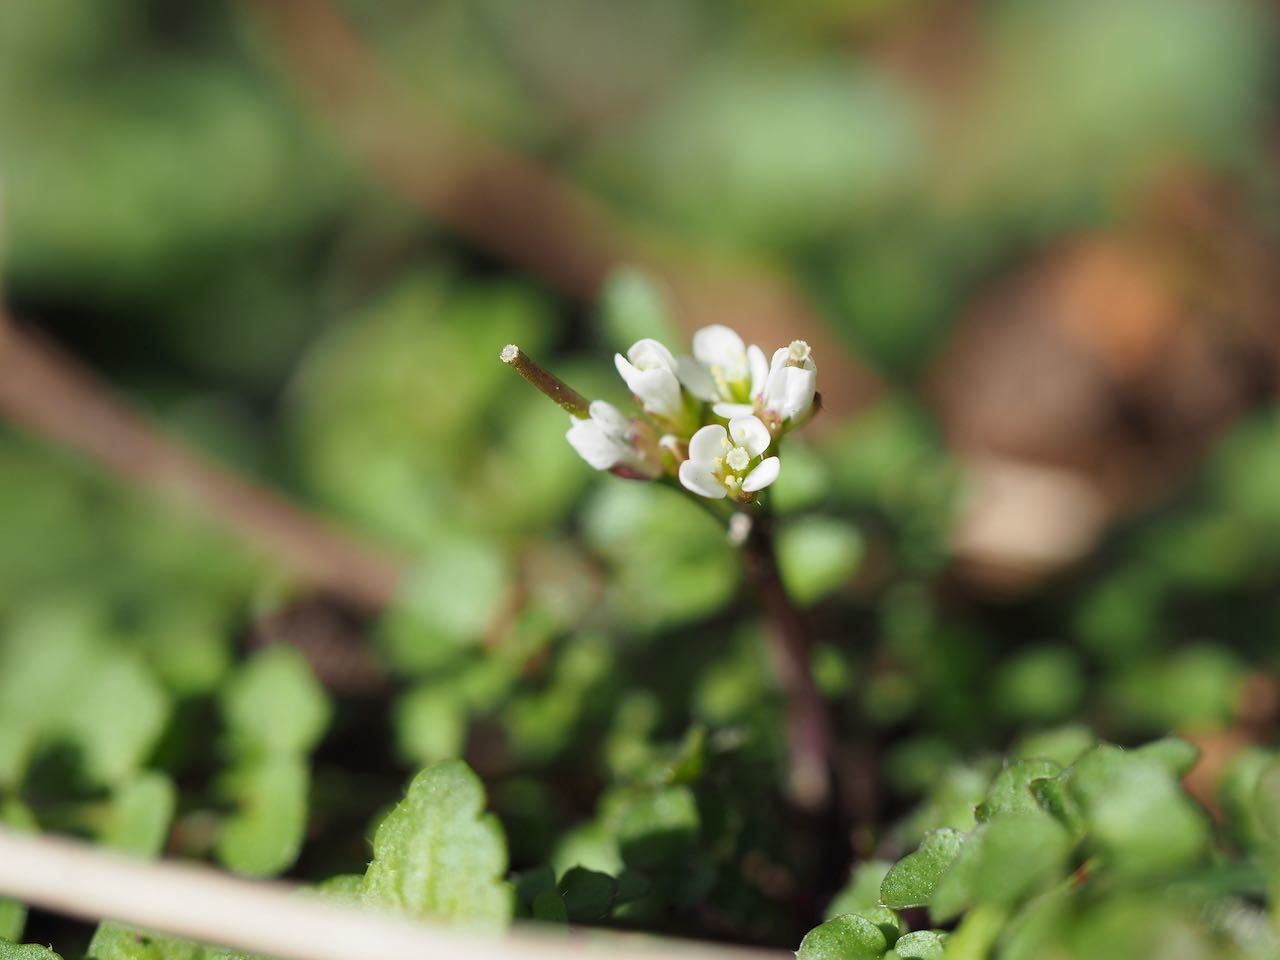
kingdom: Plantae
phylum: Tracheophyta
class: Magnoliopsida
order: Brassicales
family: Brassicaceae
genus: Cardamine
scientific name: Cardamine hirsuta
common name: Hairy bittercress
